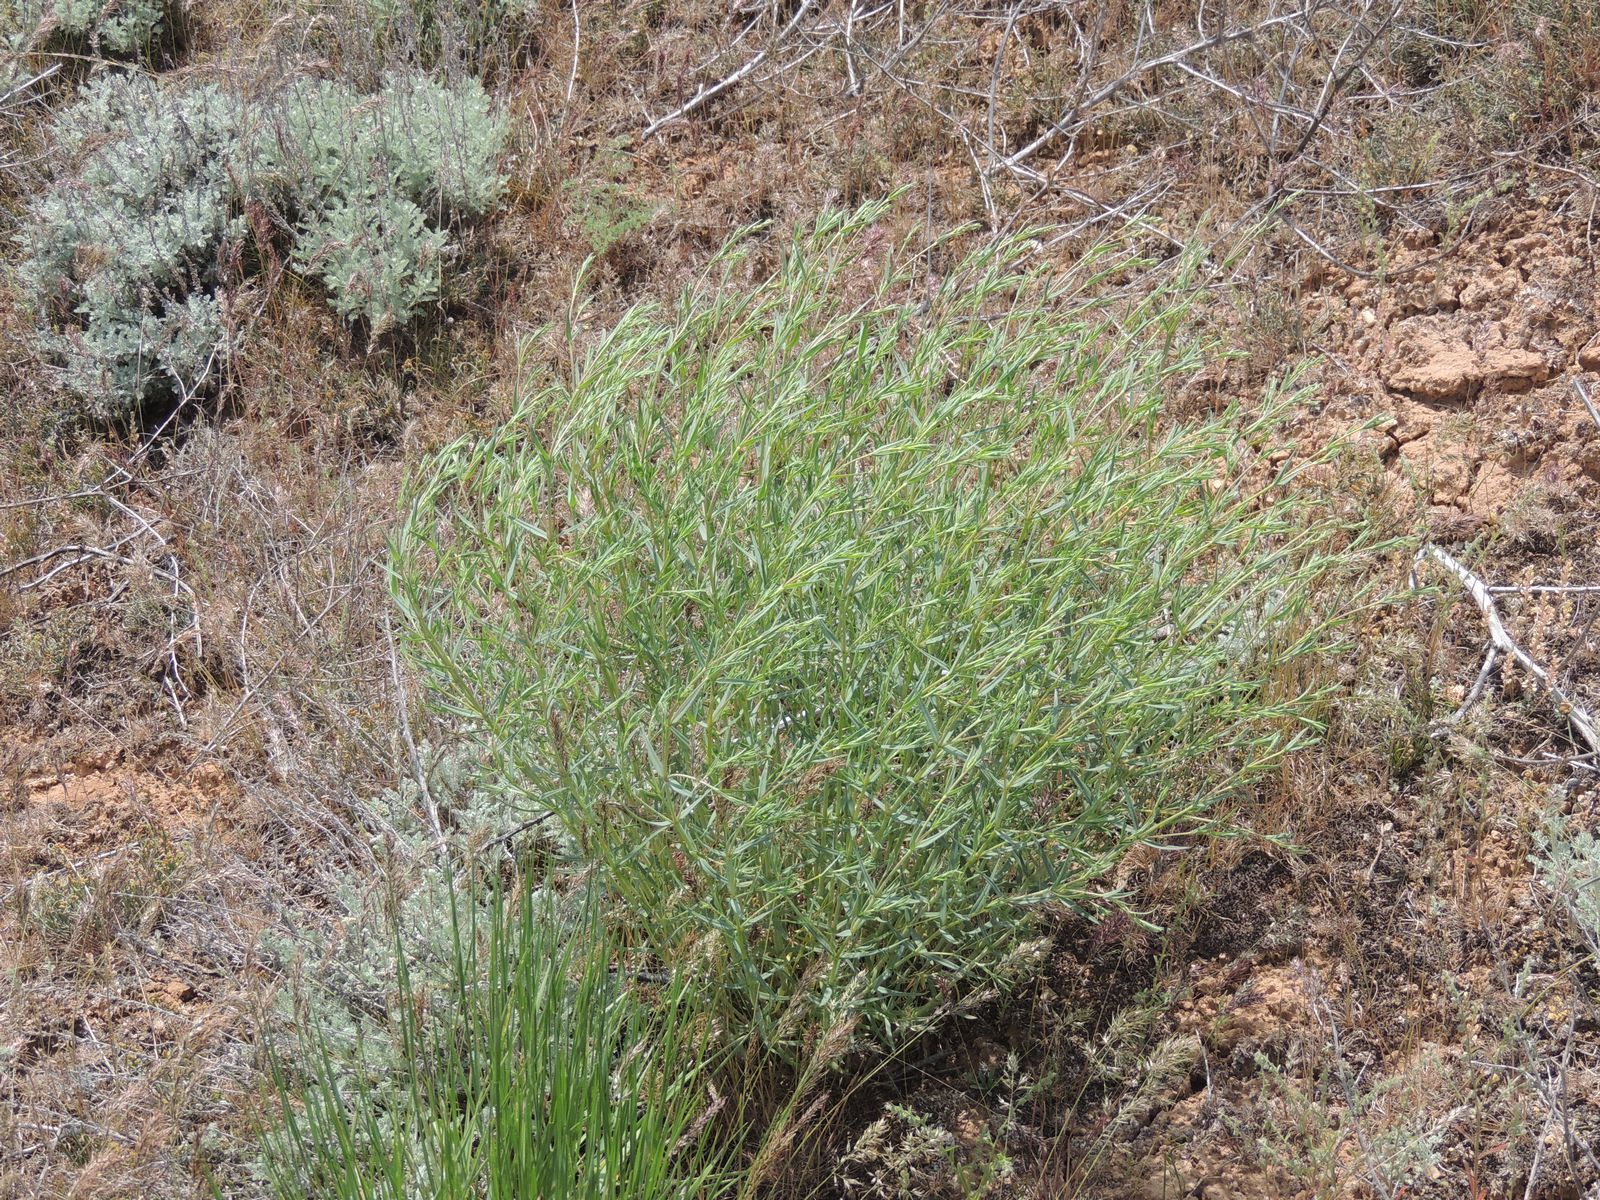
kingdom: Plantae
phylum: Tracheophyta
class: Magnoliopsida
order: Caryophyllales
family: Caryophyllaceae
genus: Gypsophila
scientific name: Gypsophila paniculata
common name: Baby's-breath
